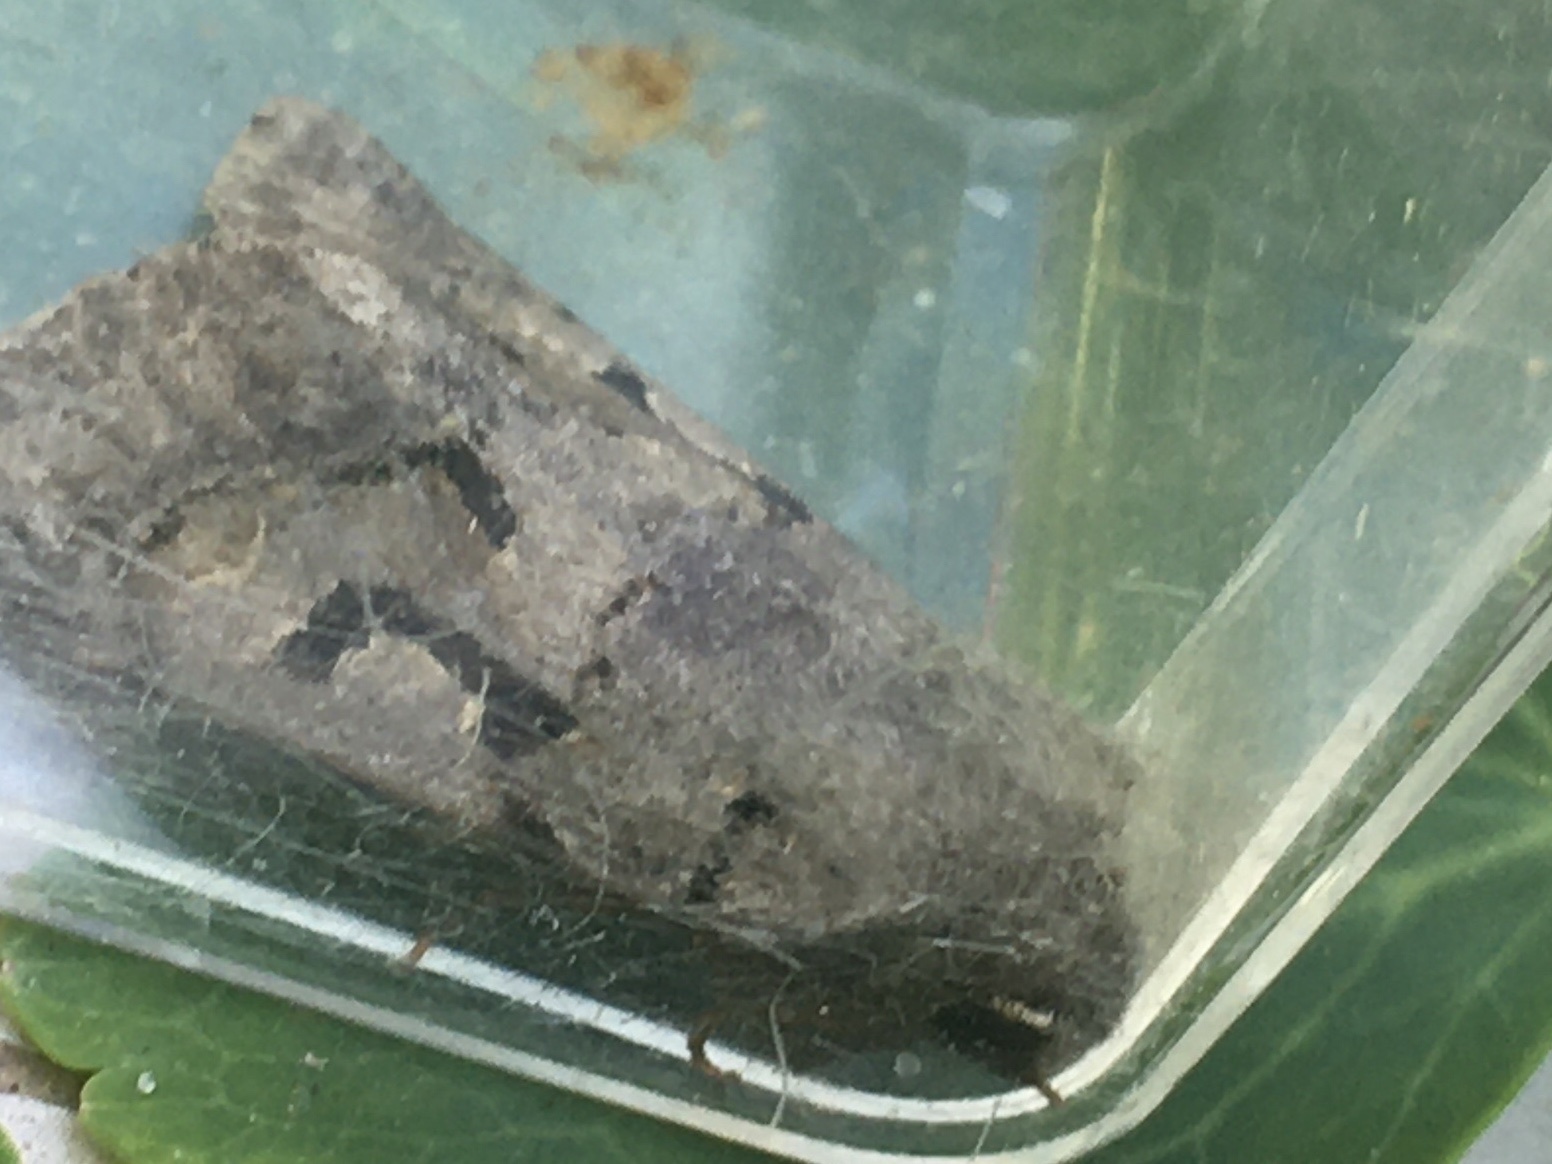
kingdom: Animalia
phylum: Arthropoda
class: Insecta
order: Lepidoptera
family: Noctuidae
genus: Orthosia
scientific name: Orthosia gothica
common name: Hebrew character
